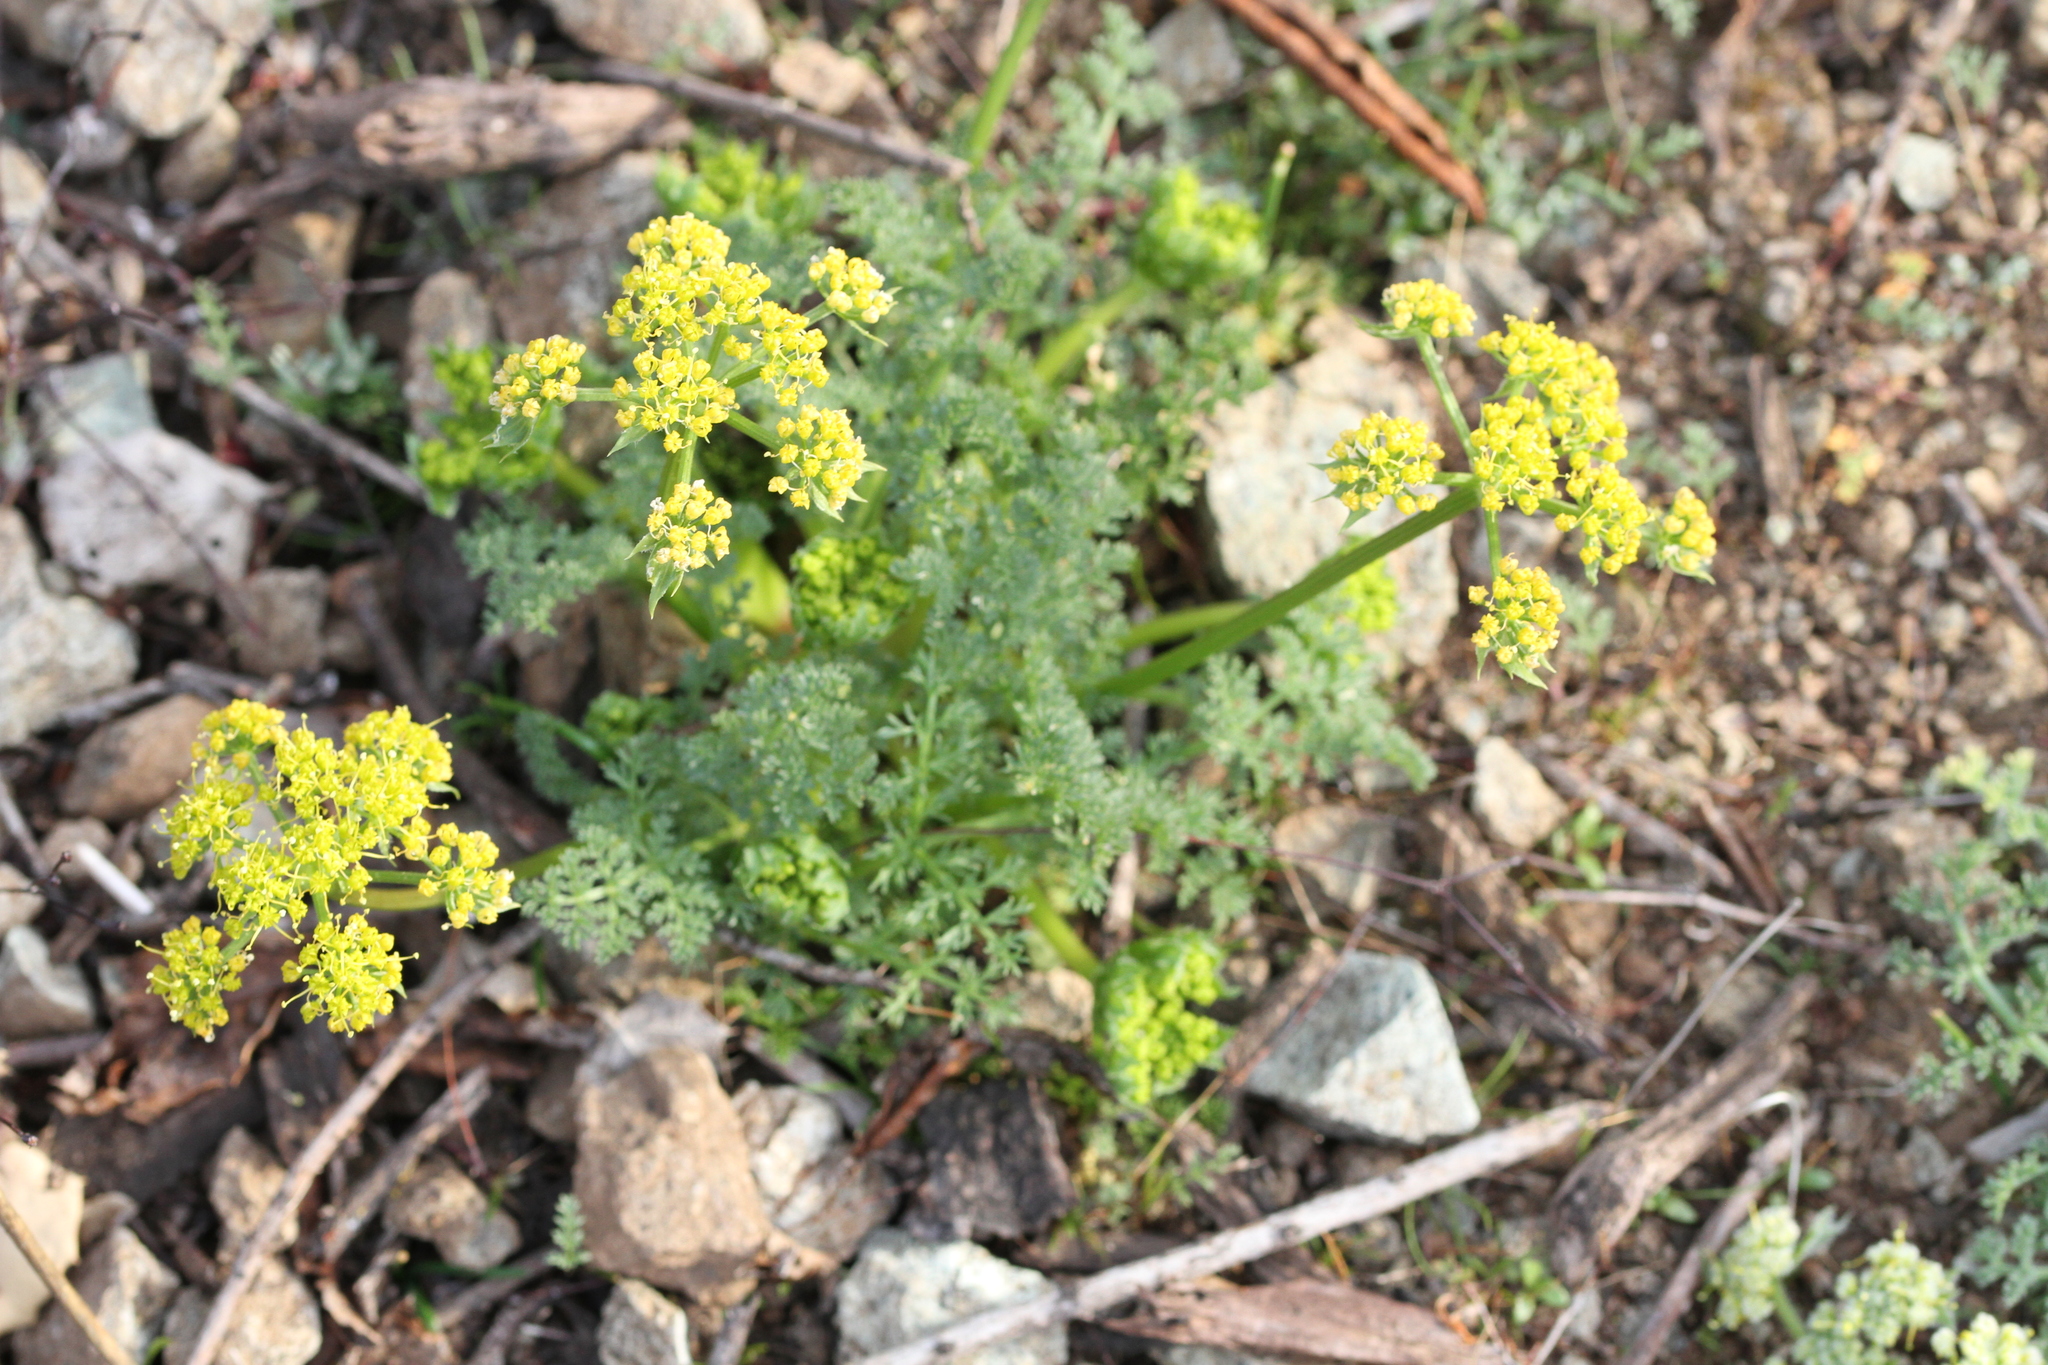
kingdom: Plantae
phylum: Tracheophyta
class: Magnoliopsida
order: Apiales
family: Apiaceae
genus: Lomatium
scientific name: Lomatium dasycarpum
